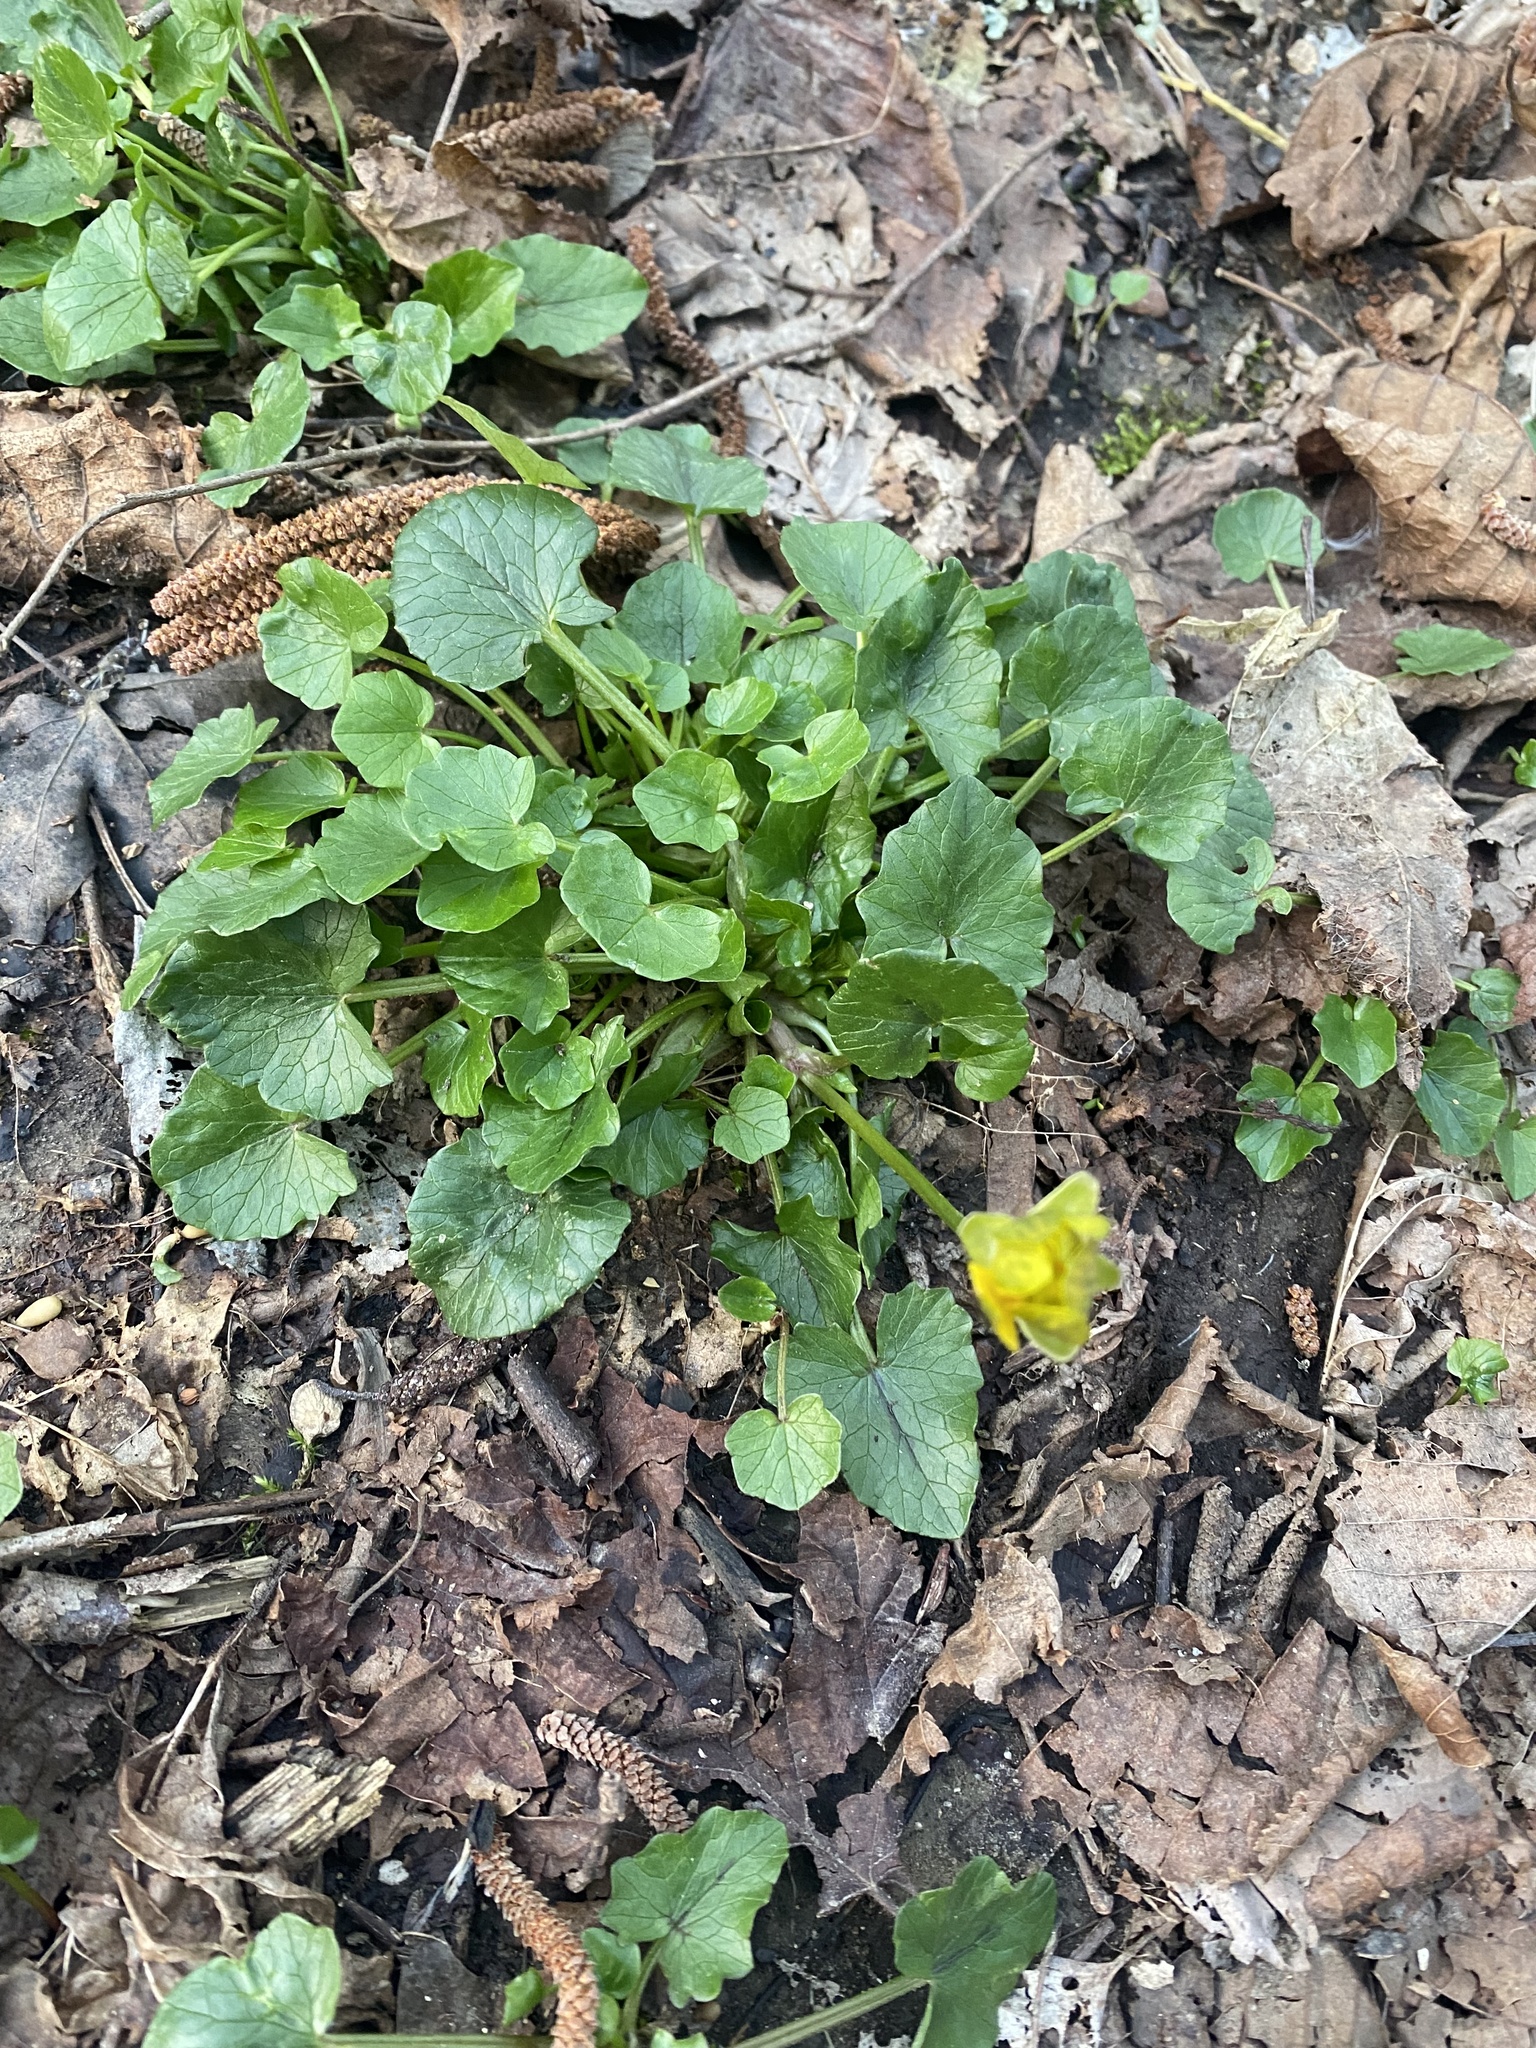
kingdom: Plantae
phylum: Tracheophyta
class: Magnoliopsida
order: Ranunculales
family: Ranunculaceae
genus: Ficaria
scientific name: Ficaria verna
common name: Lesser celandine
